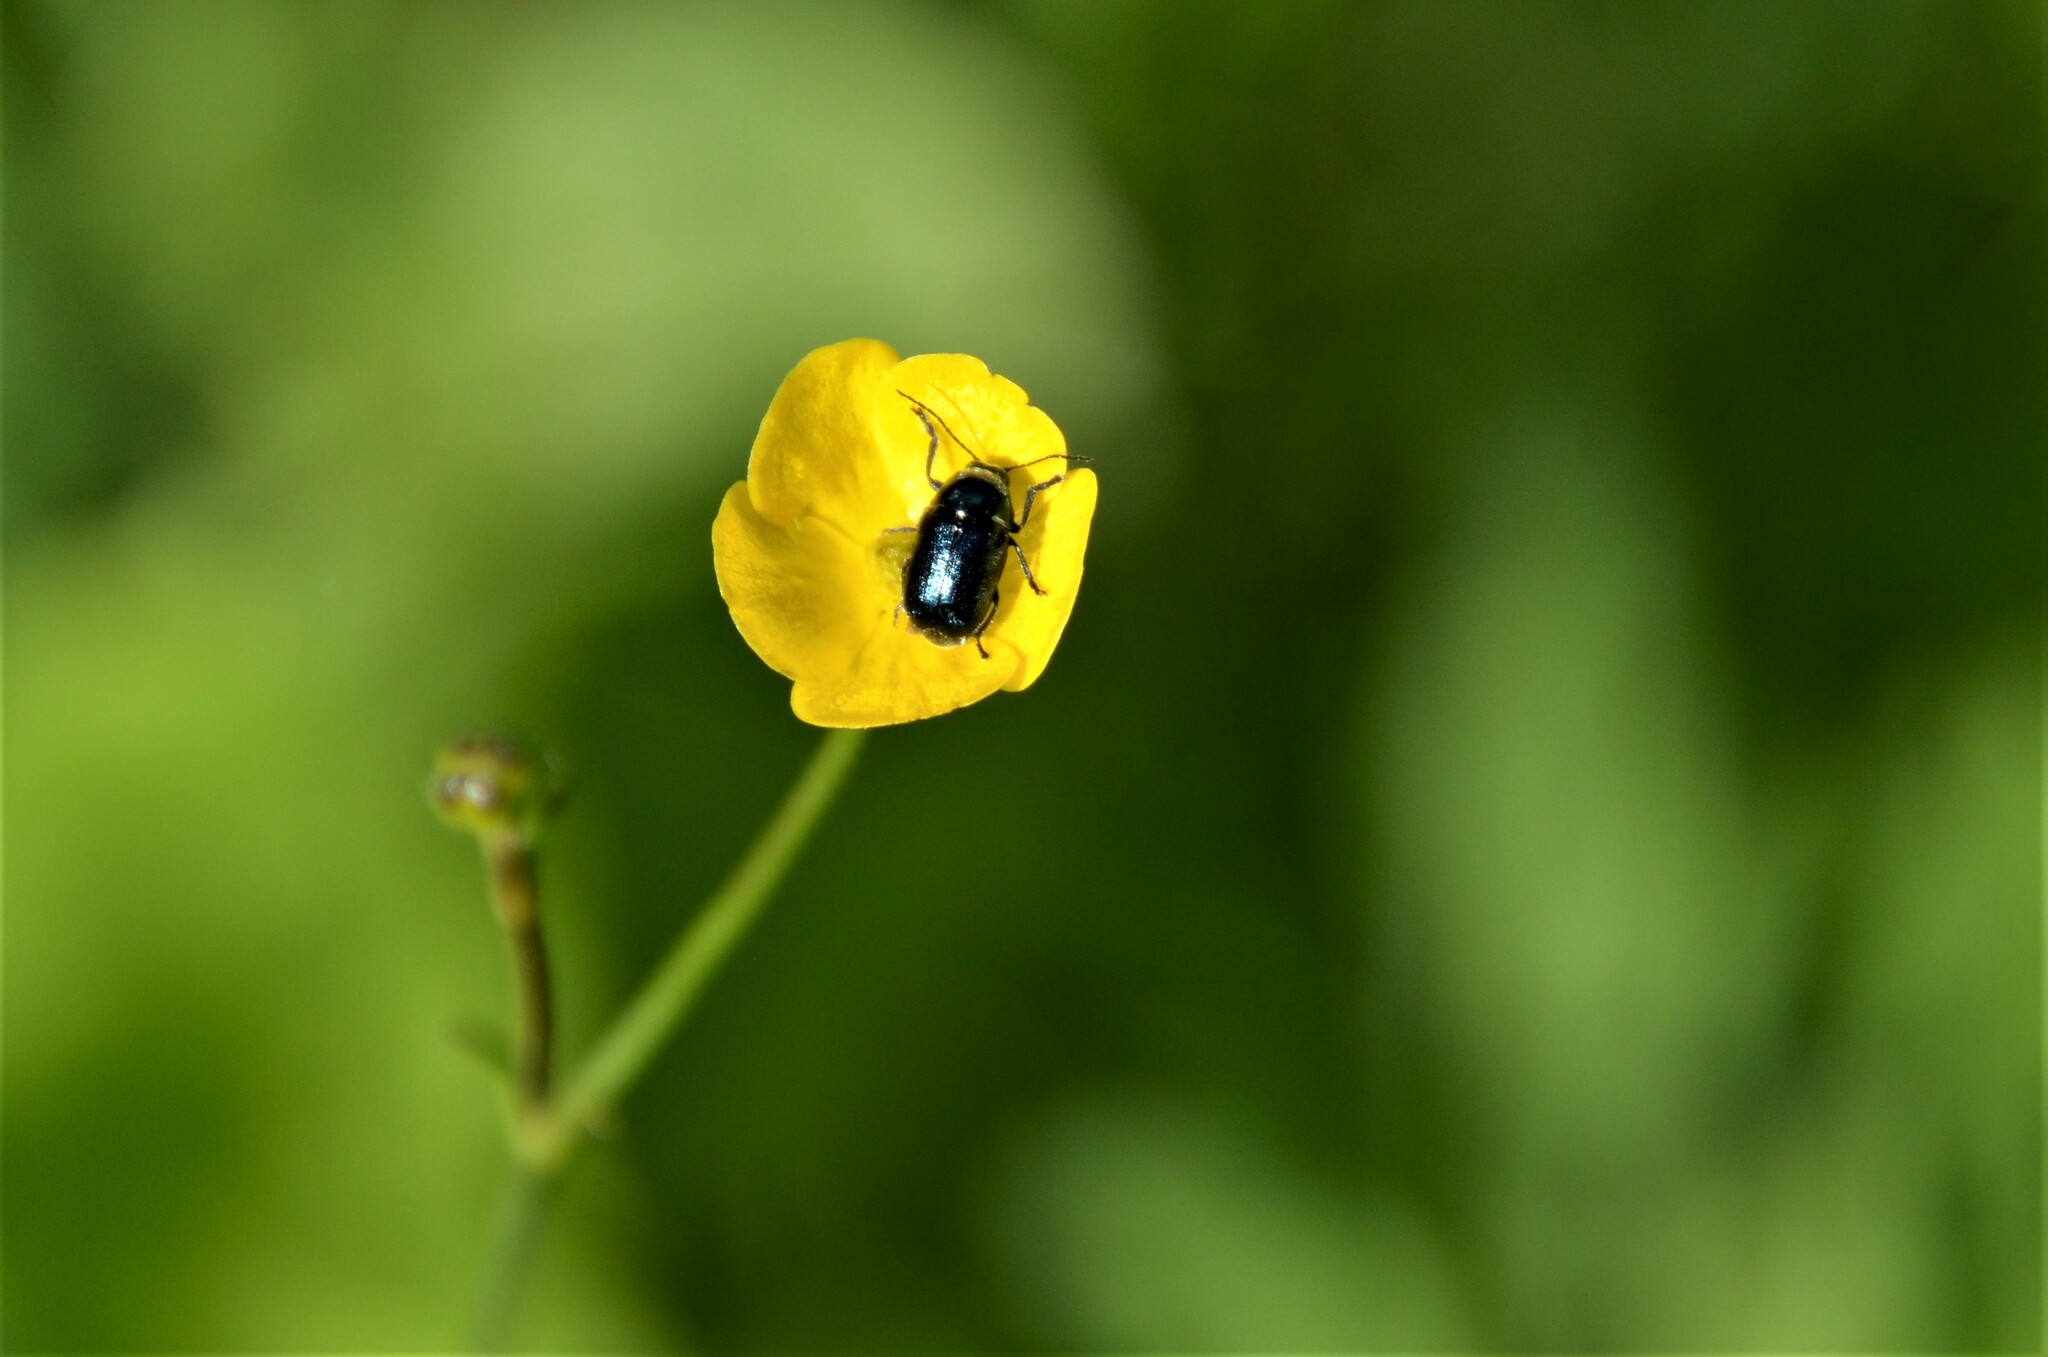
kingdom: Animalia
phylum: Arthropoda
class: Insecta
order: Coleoptera
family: Chrysomelidae
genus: Cryptocephalus
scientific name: Cryptocephalus violaceus
